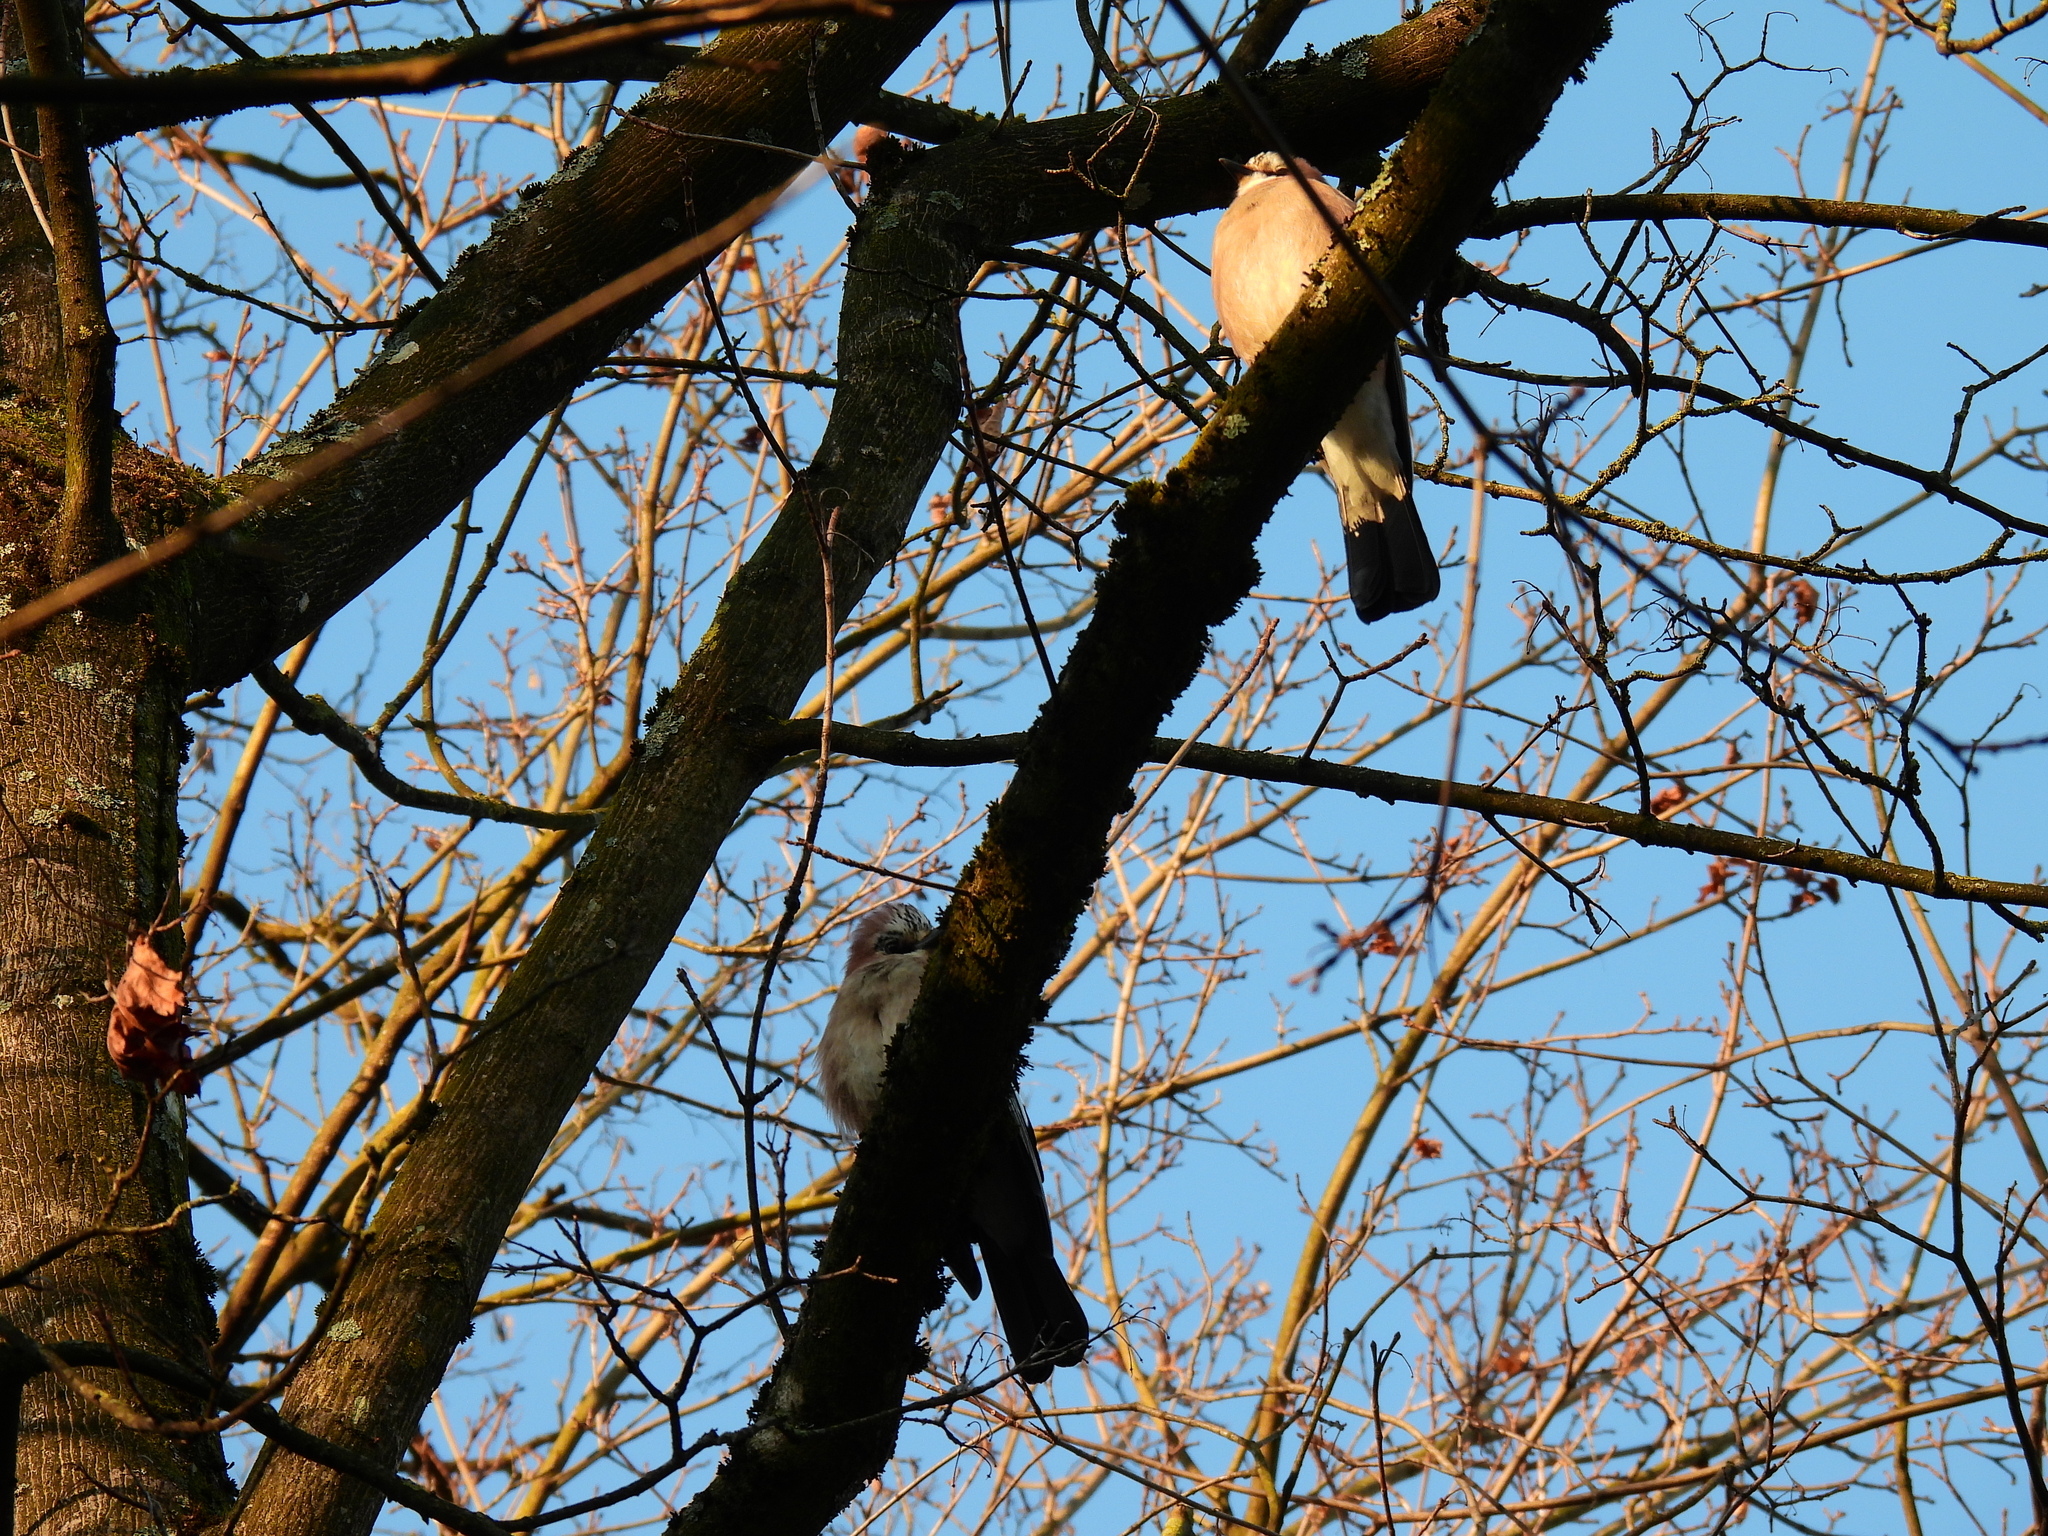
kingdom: Animalia
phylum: Chordata
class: Aves
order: Passeriformes
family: Corvidae
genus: Garrulus
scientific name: Garrulus glandarius
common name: Eurasian jay
